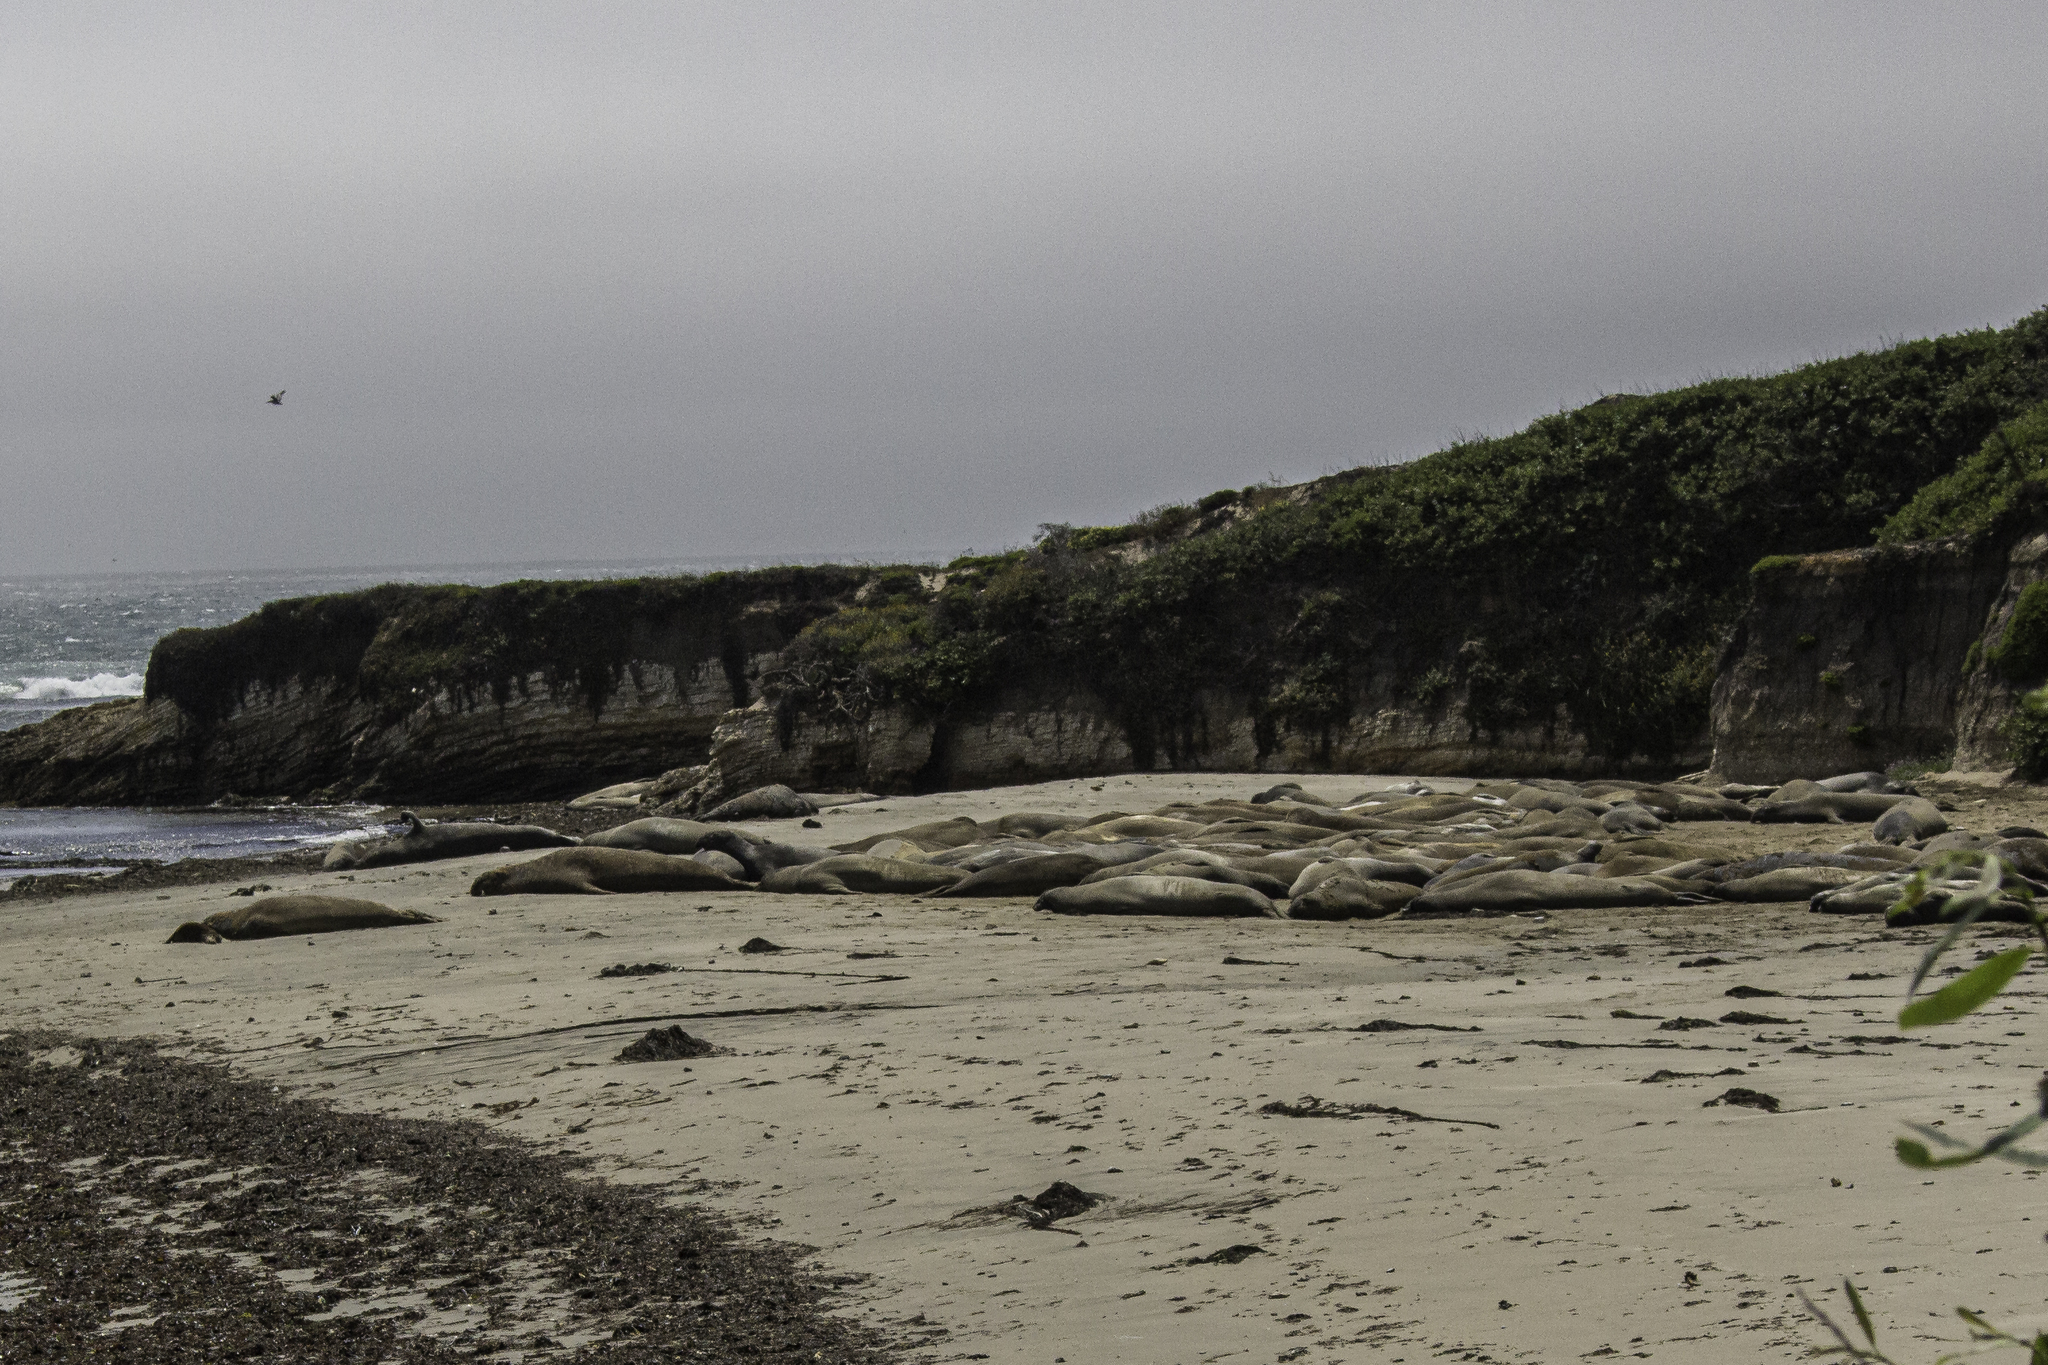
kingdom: Animalia
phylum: Chordata
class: Mammalia
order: Carnivora
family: Phocidae
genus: Mirounga
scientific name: Mirounga angustirostris
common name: Northern elephant seal
